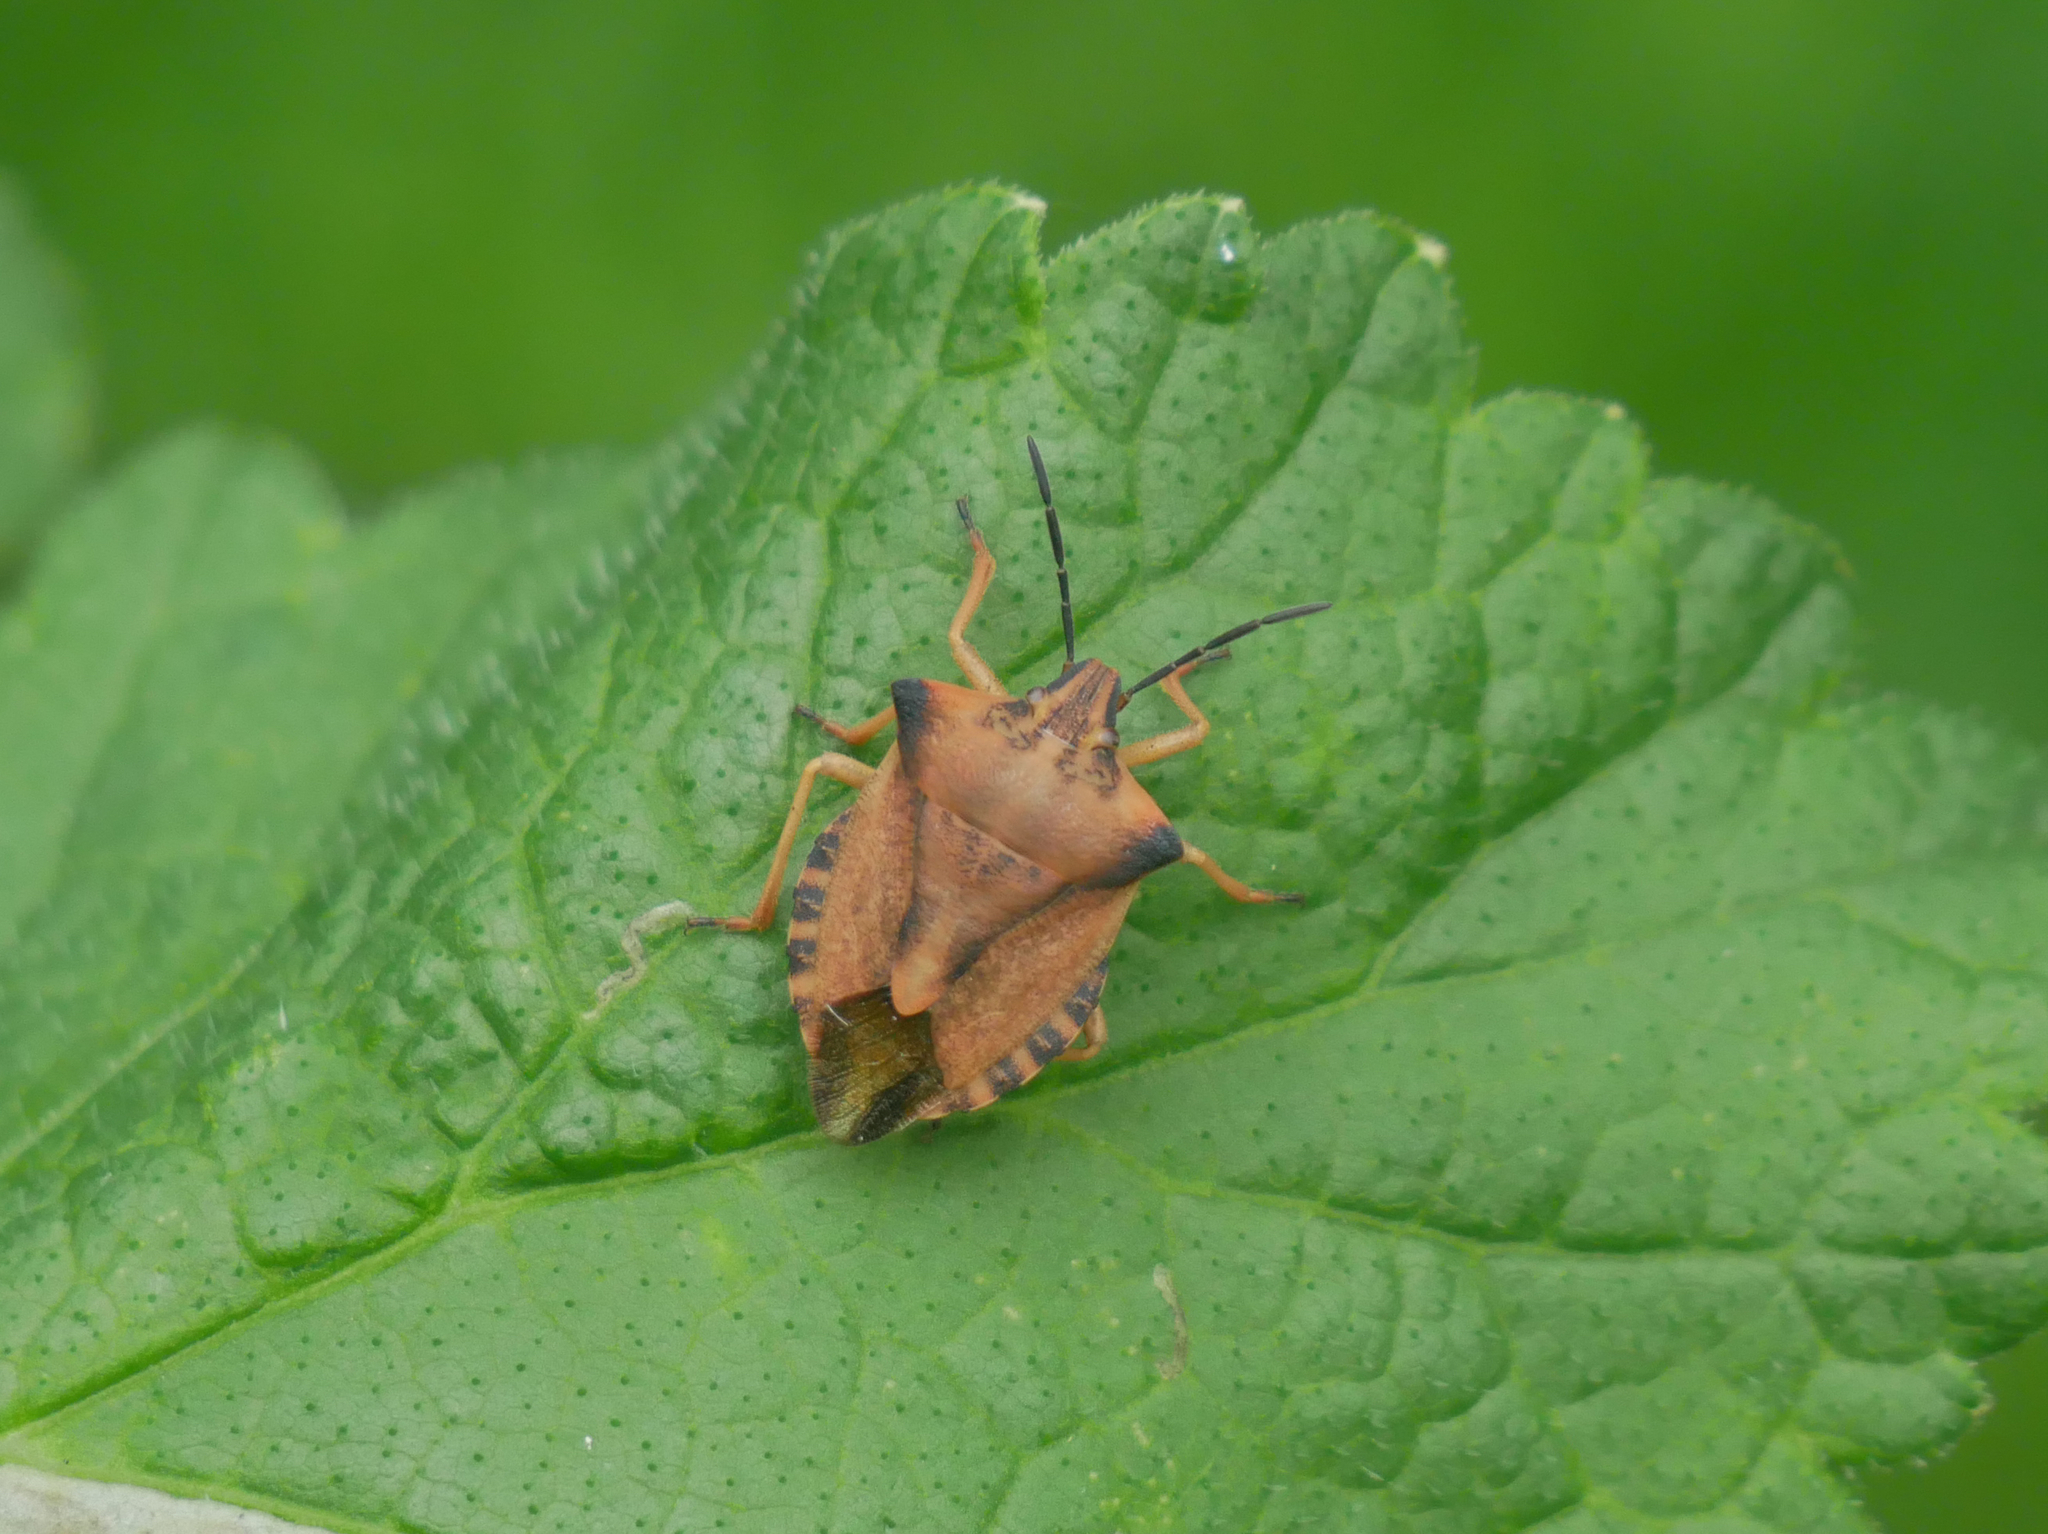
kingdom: Animalia
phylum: Arthropoda
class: Insecta
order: Hemiptera
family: Pentatomidae
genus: Carpocoris
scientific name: Carpocoris fuscispinus
